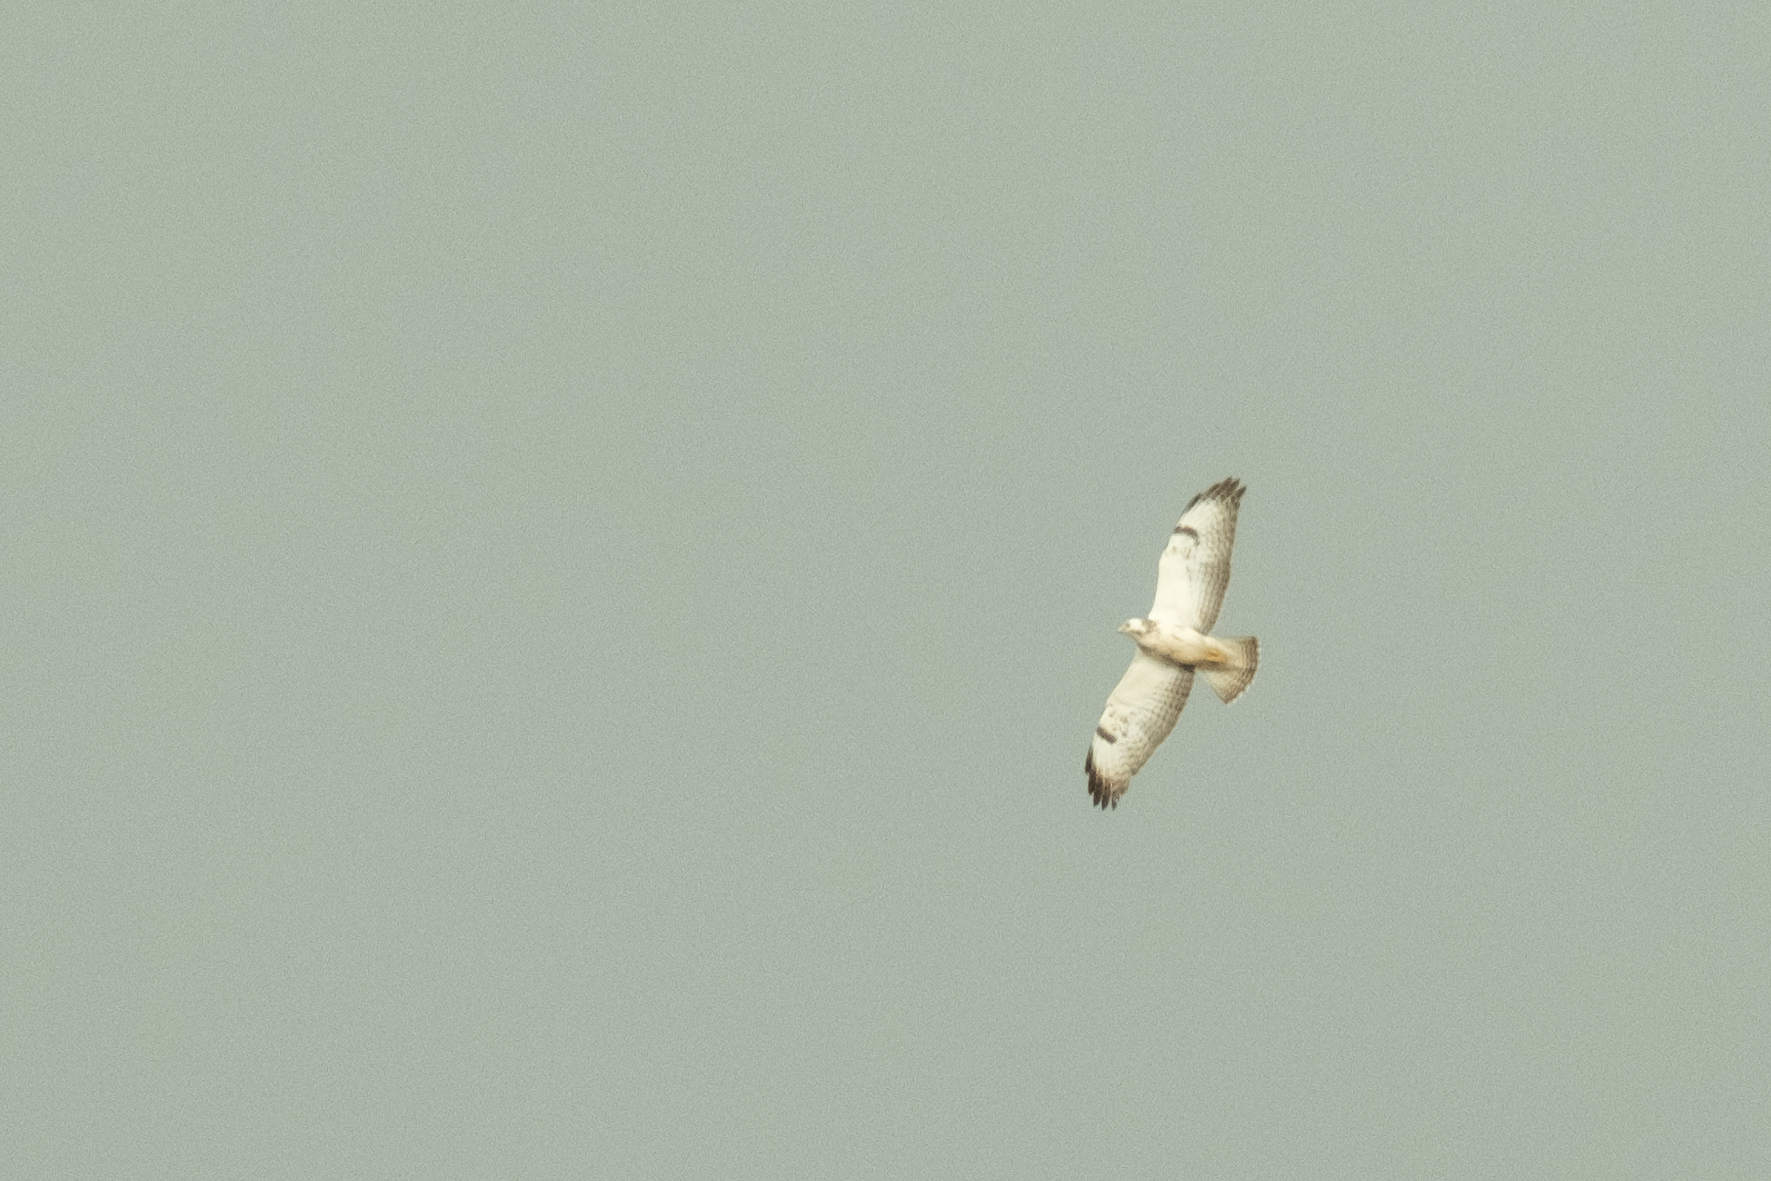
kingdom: Animalia
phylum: Chordata
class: Aves
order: Accipitriformes
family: Accipitridae
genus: Buteo
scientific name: Buteo buteo
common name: Common buzzard
